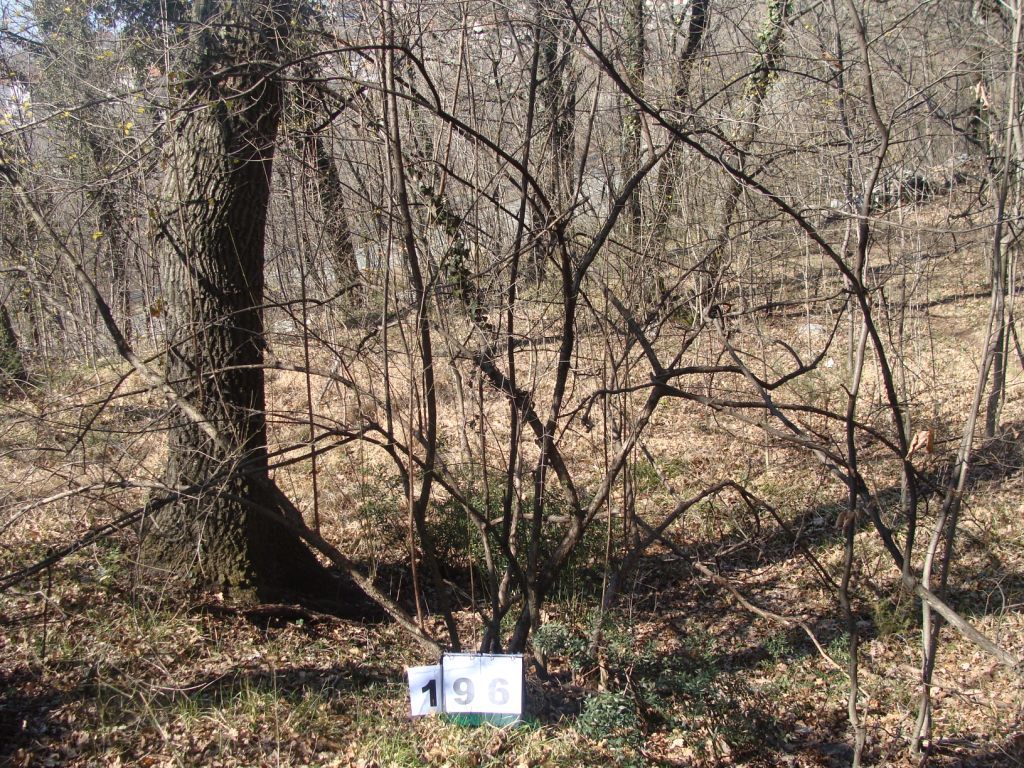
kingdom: Plantae
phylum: Tracheophyta
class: Magnoliopsida
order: Cornales
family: Cornaceae
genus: Cornus
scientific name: Cornus mas
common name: Cornelian-cherry
